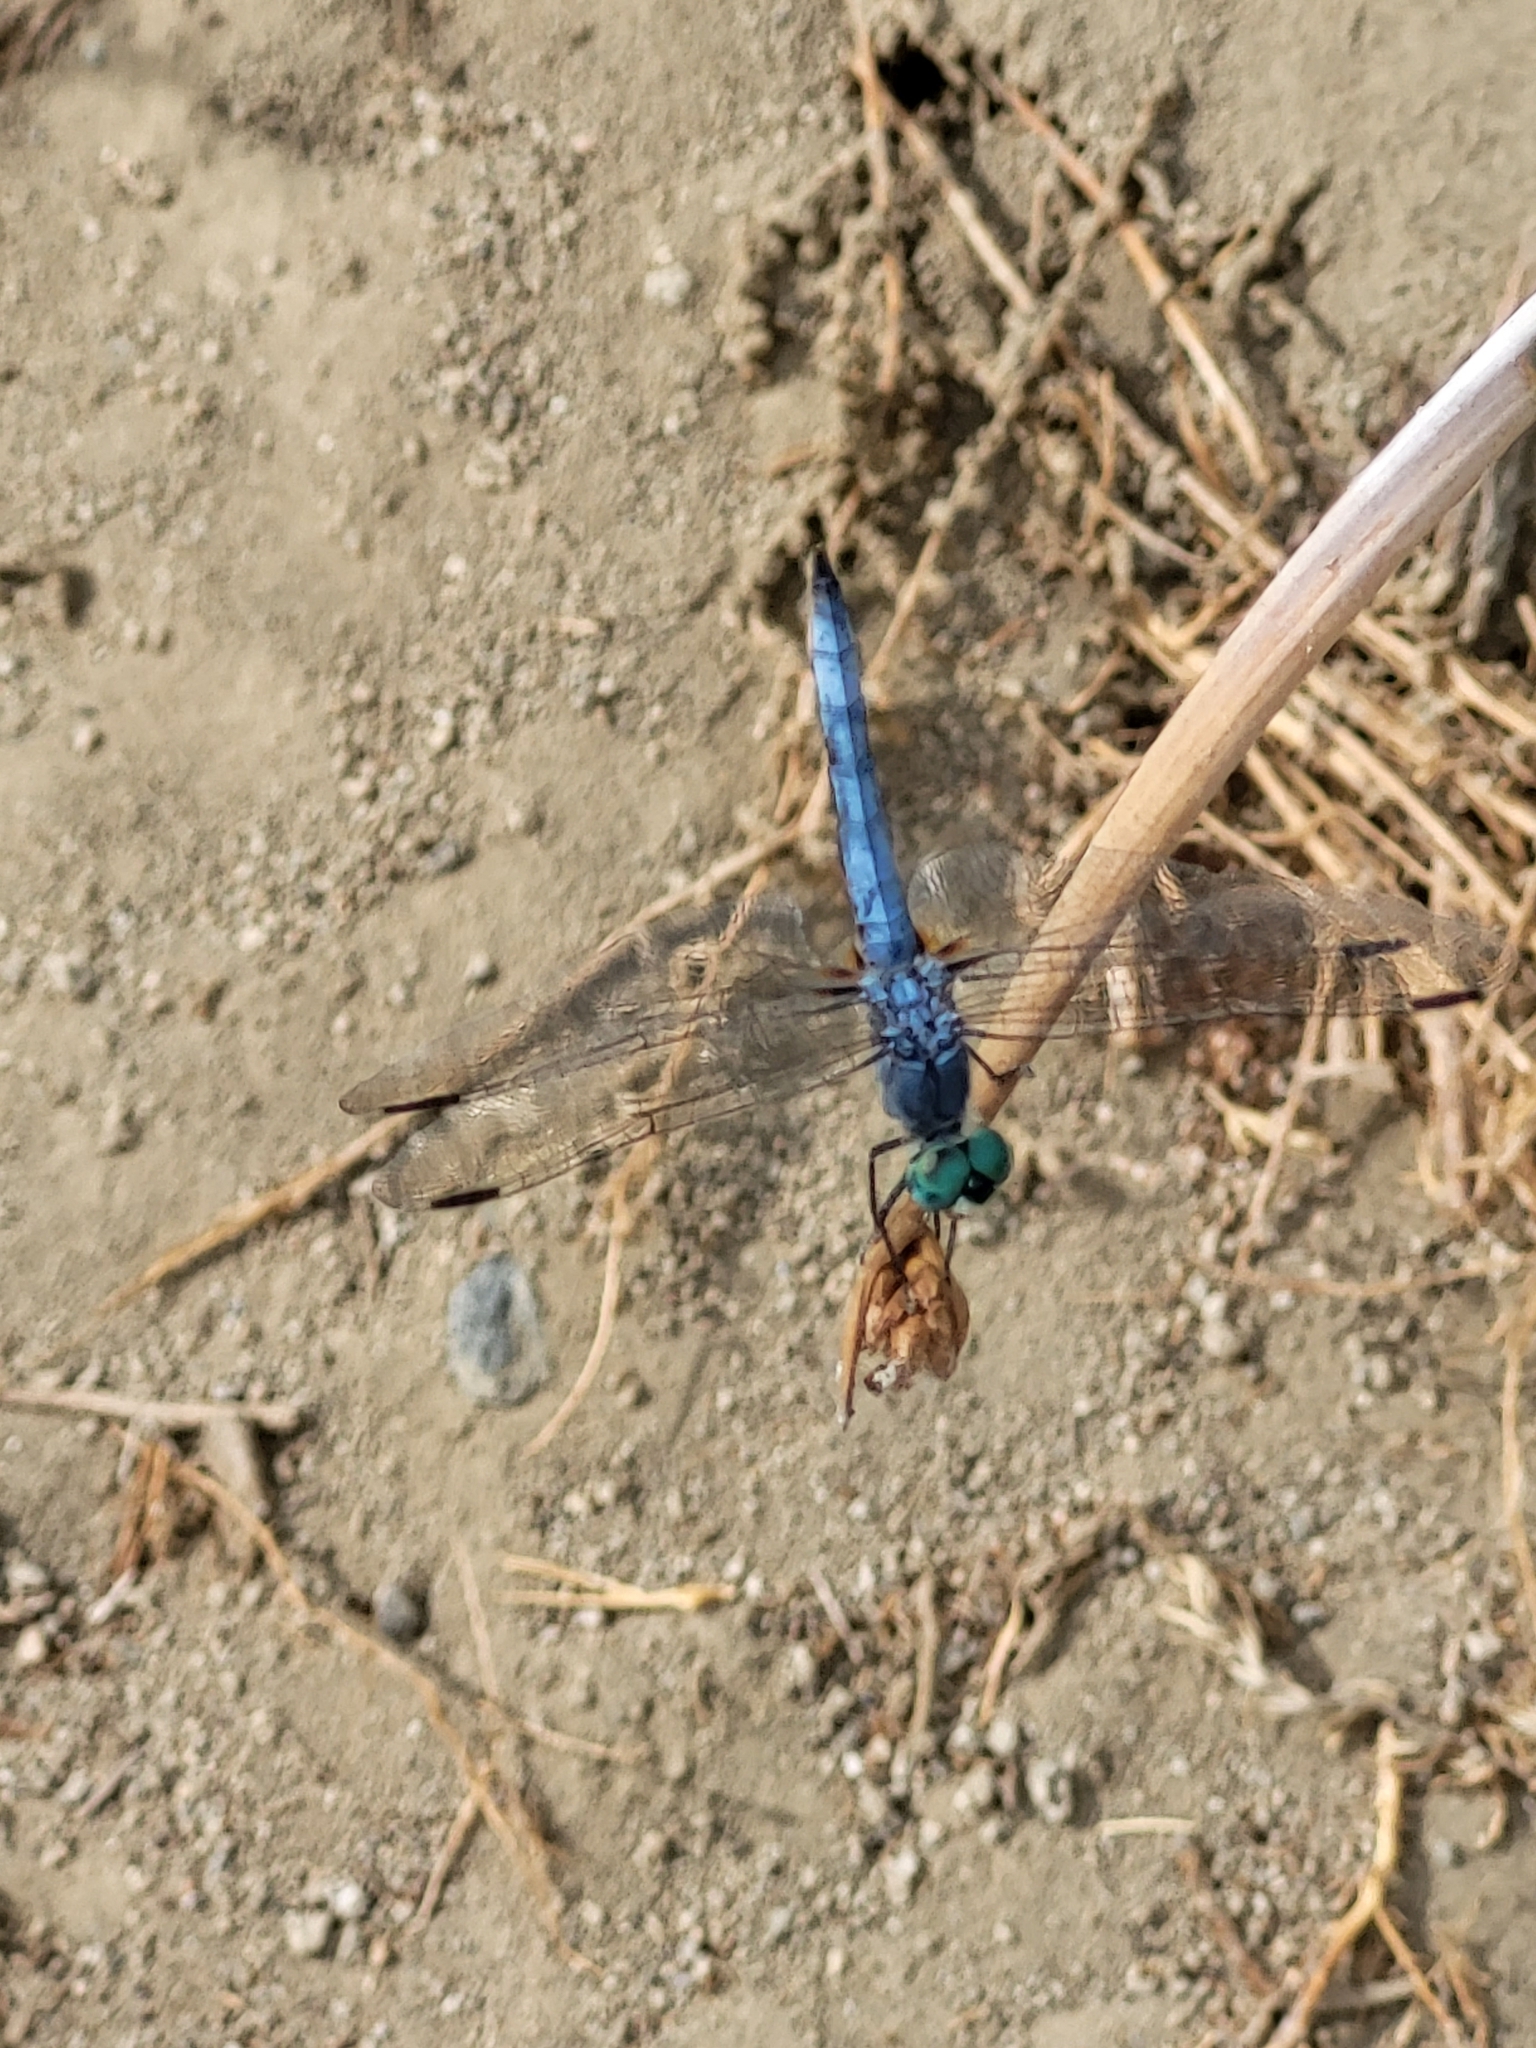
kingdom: Animalia
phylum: Arthropoda
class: Insecta
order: Odonata
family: Libellulidae
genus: Pachydiplax
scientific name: Pachydiplax longipennis
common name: Blue dasher
